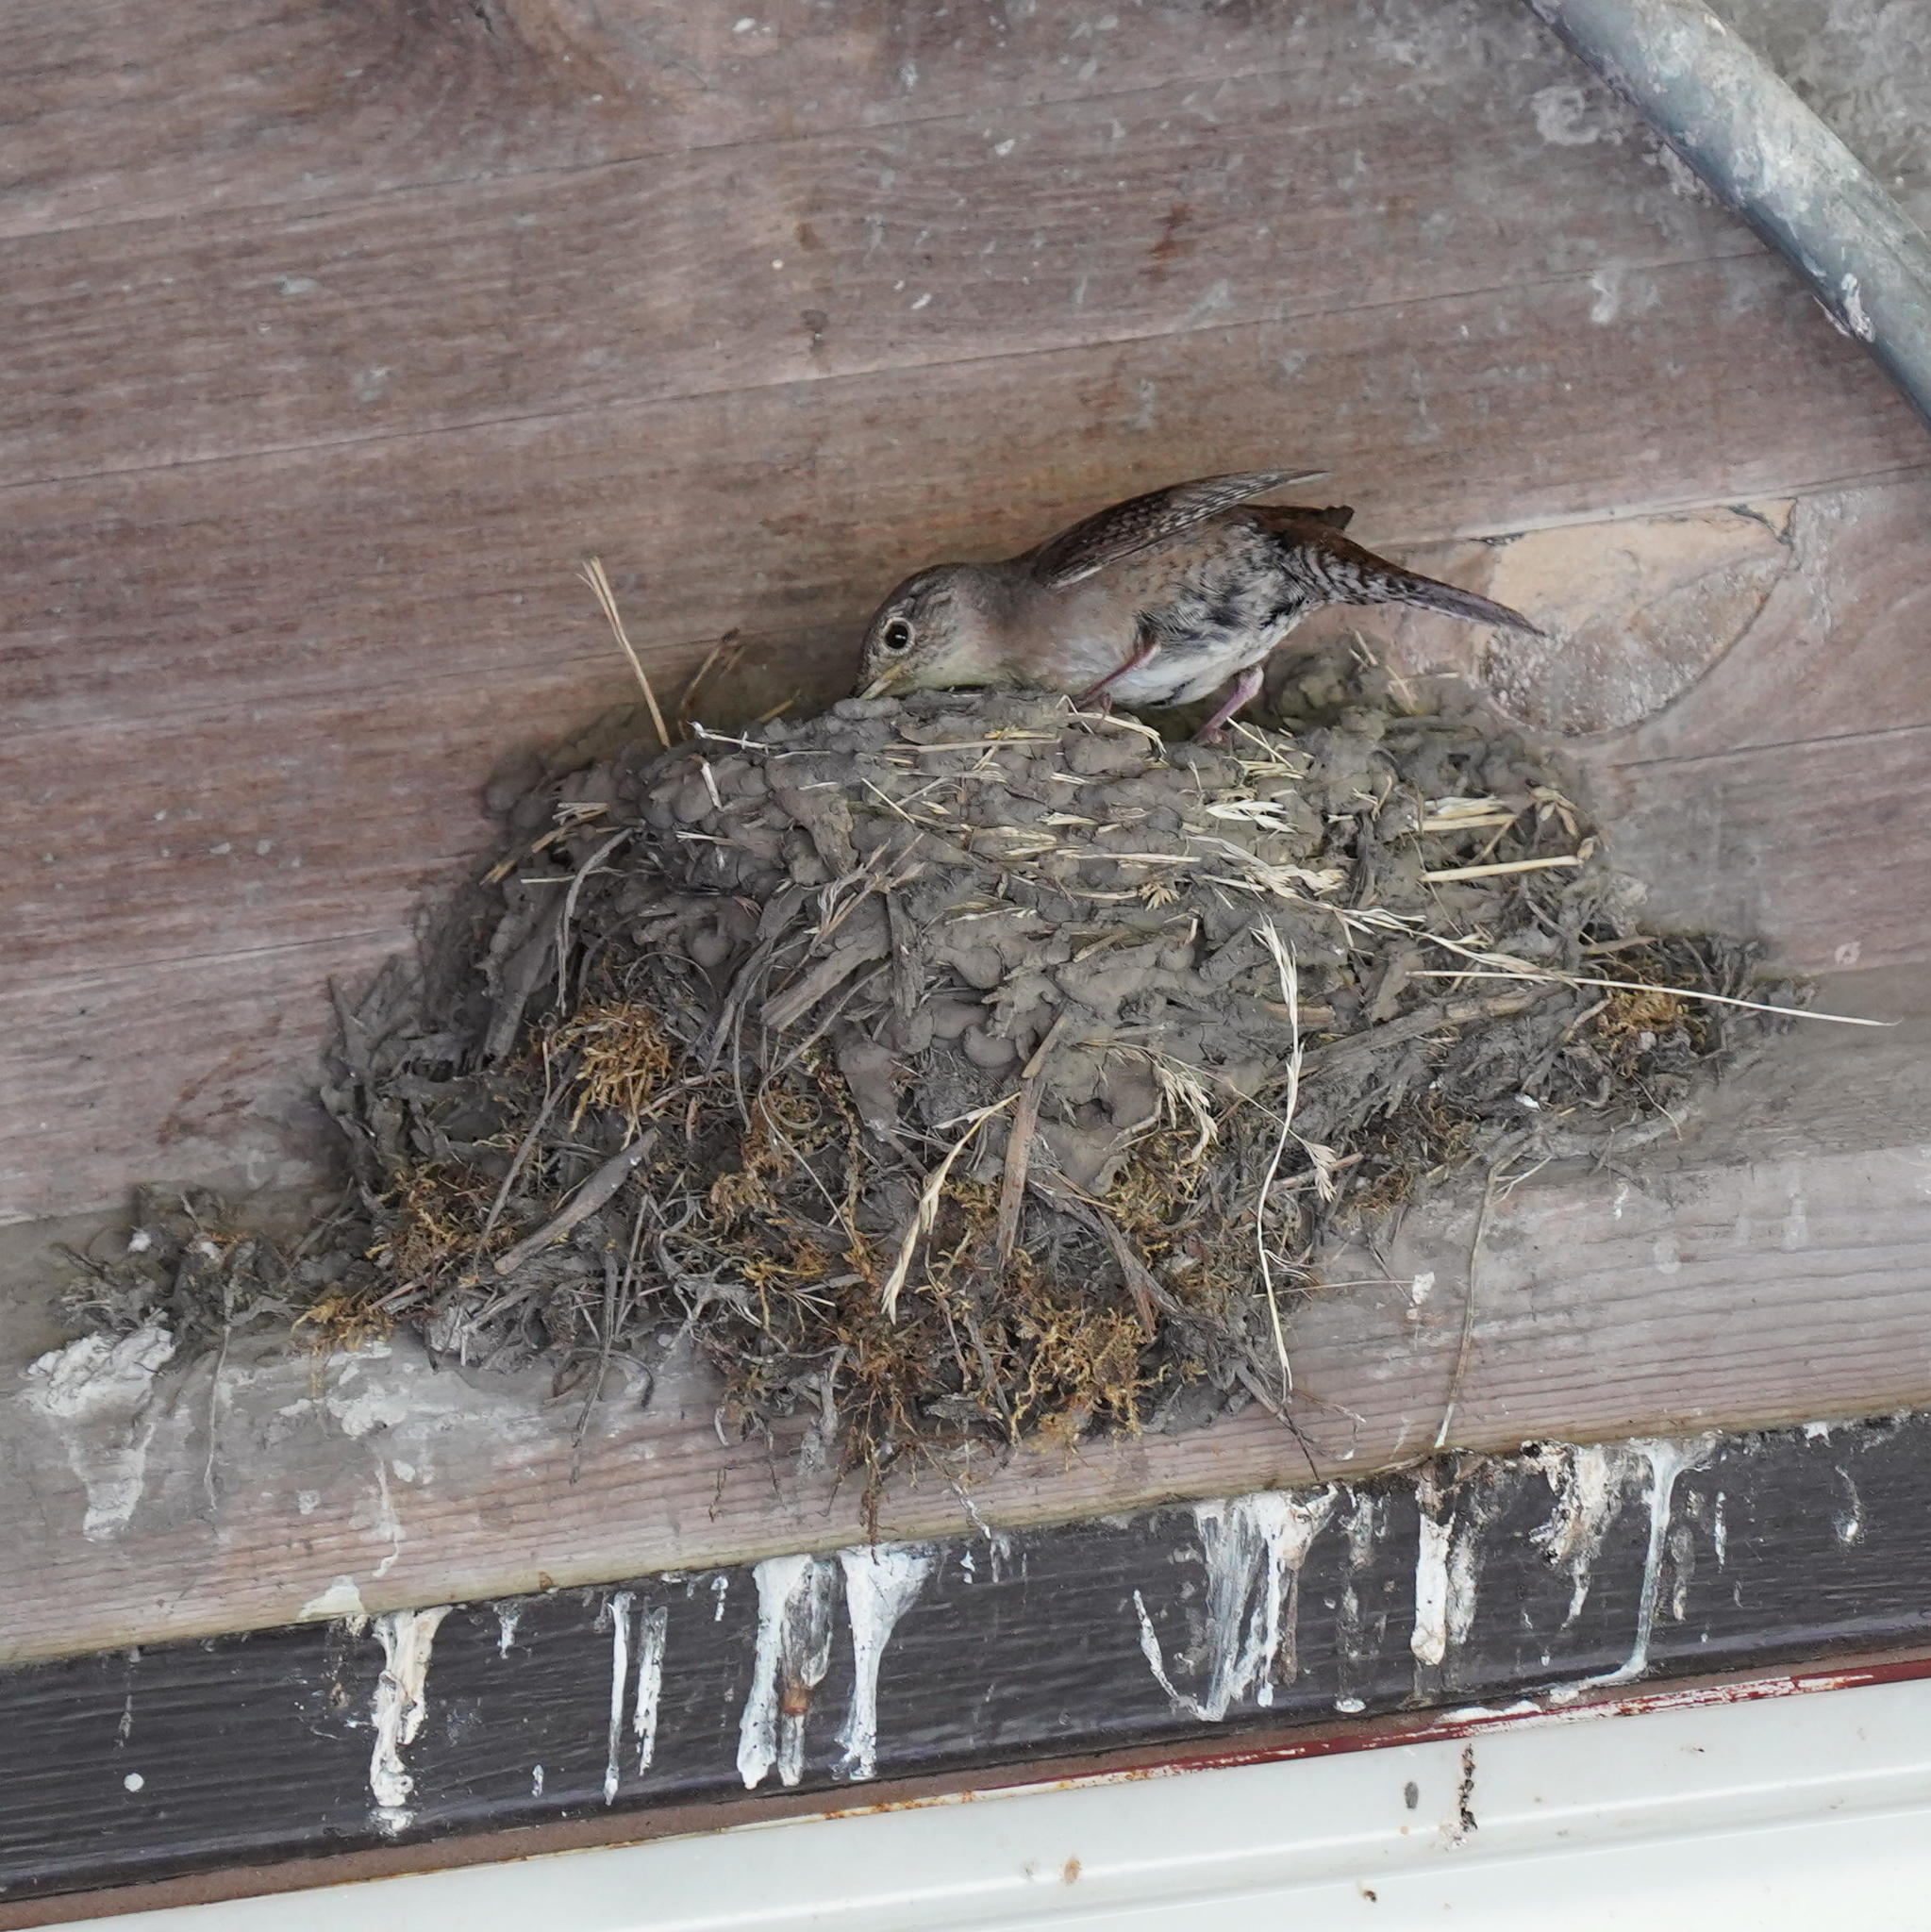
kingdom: Animalia
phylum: Chordata
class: Aves
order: Passeriformes
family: Troglodytidae
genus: Troglodytes
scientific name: Troglodytes aedon
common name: House wren
